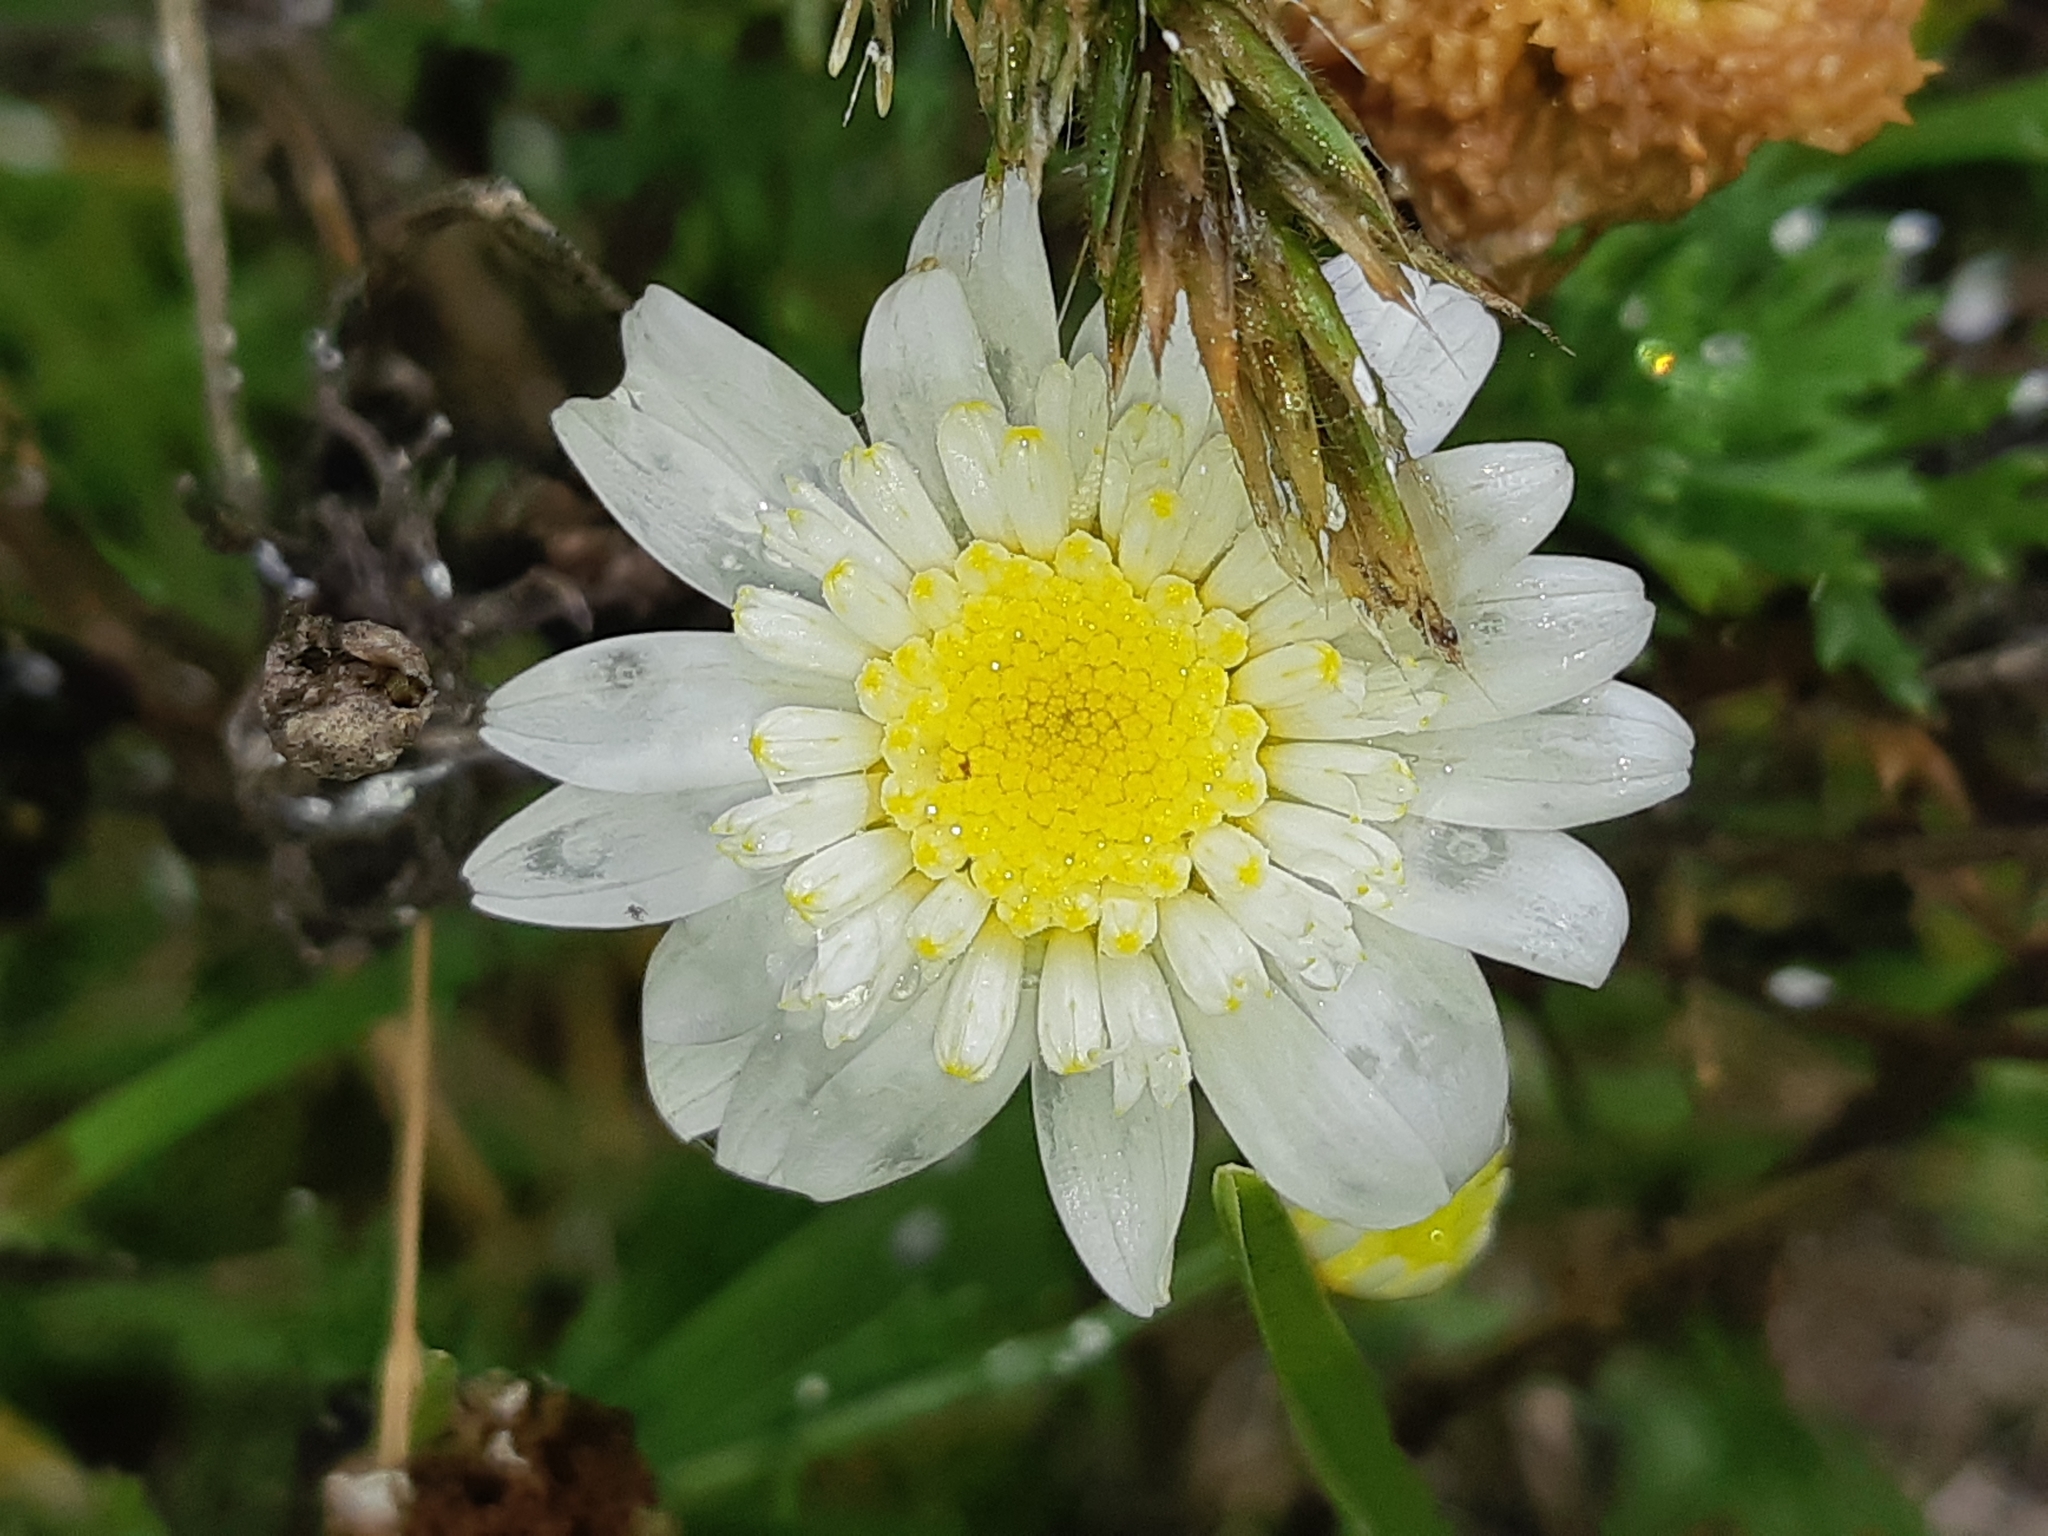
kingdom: Plantae
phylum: Tracheophyta
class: Magnoliopsida
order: Asterales
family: Asteraceae
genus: Cotula
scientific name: Cotula turbinata
